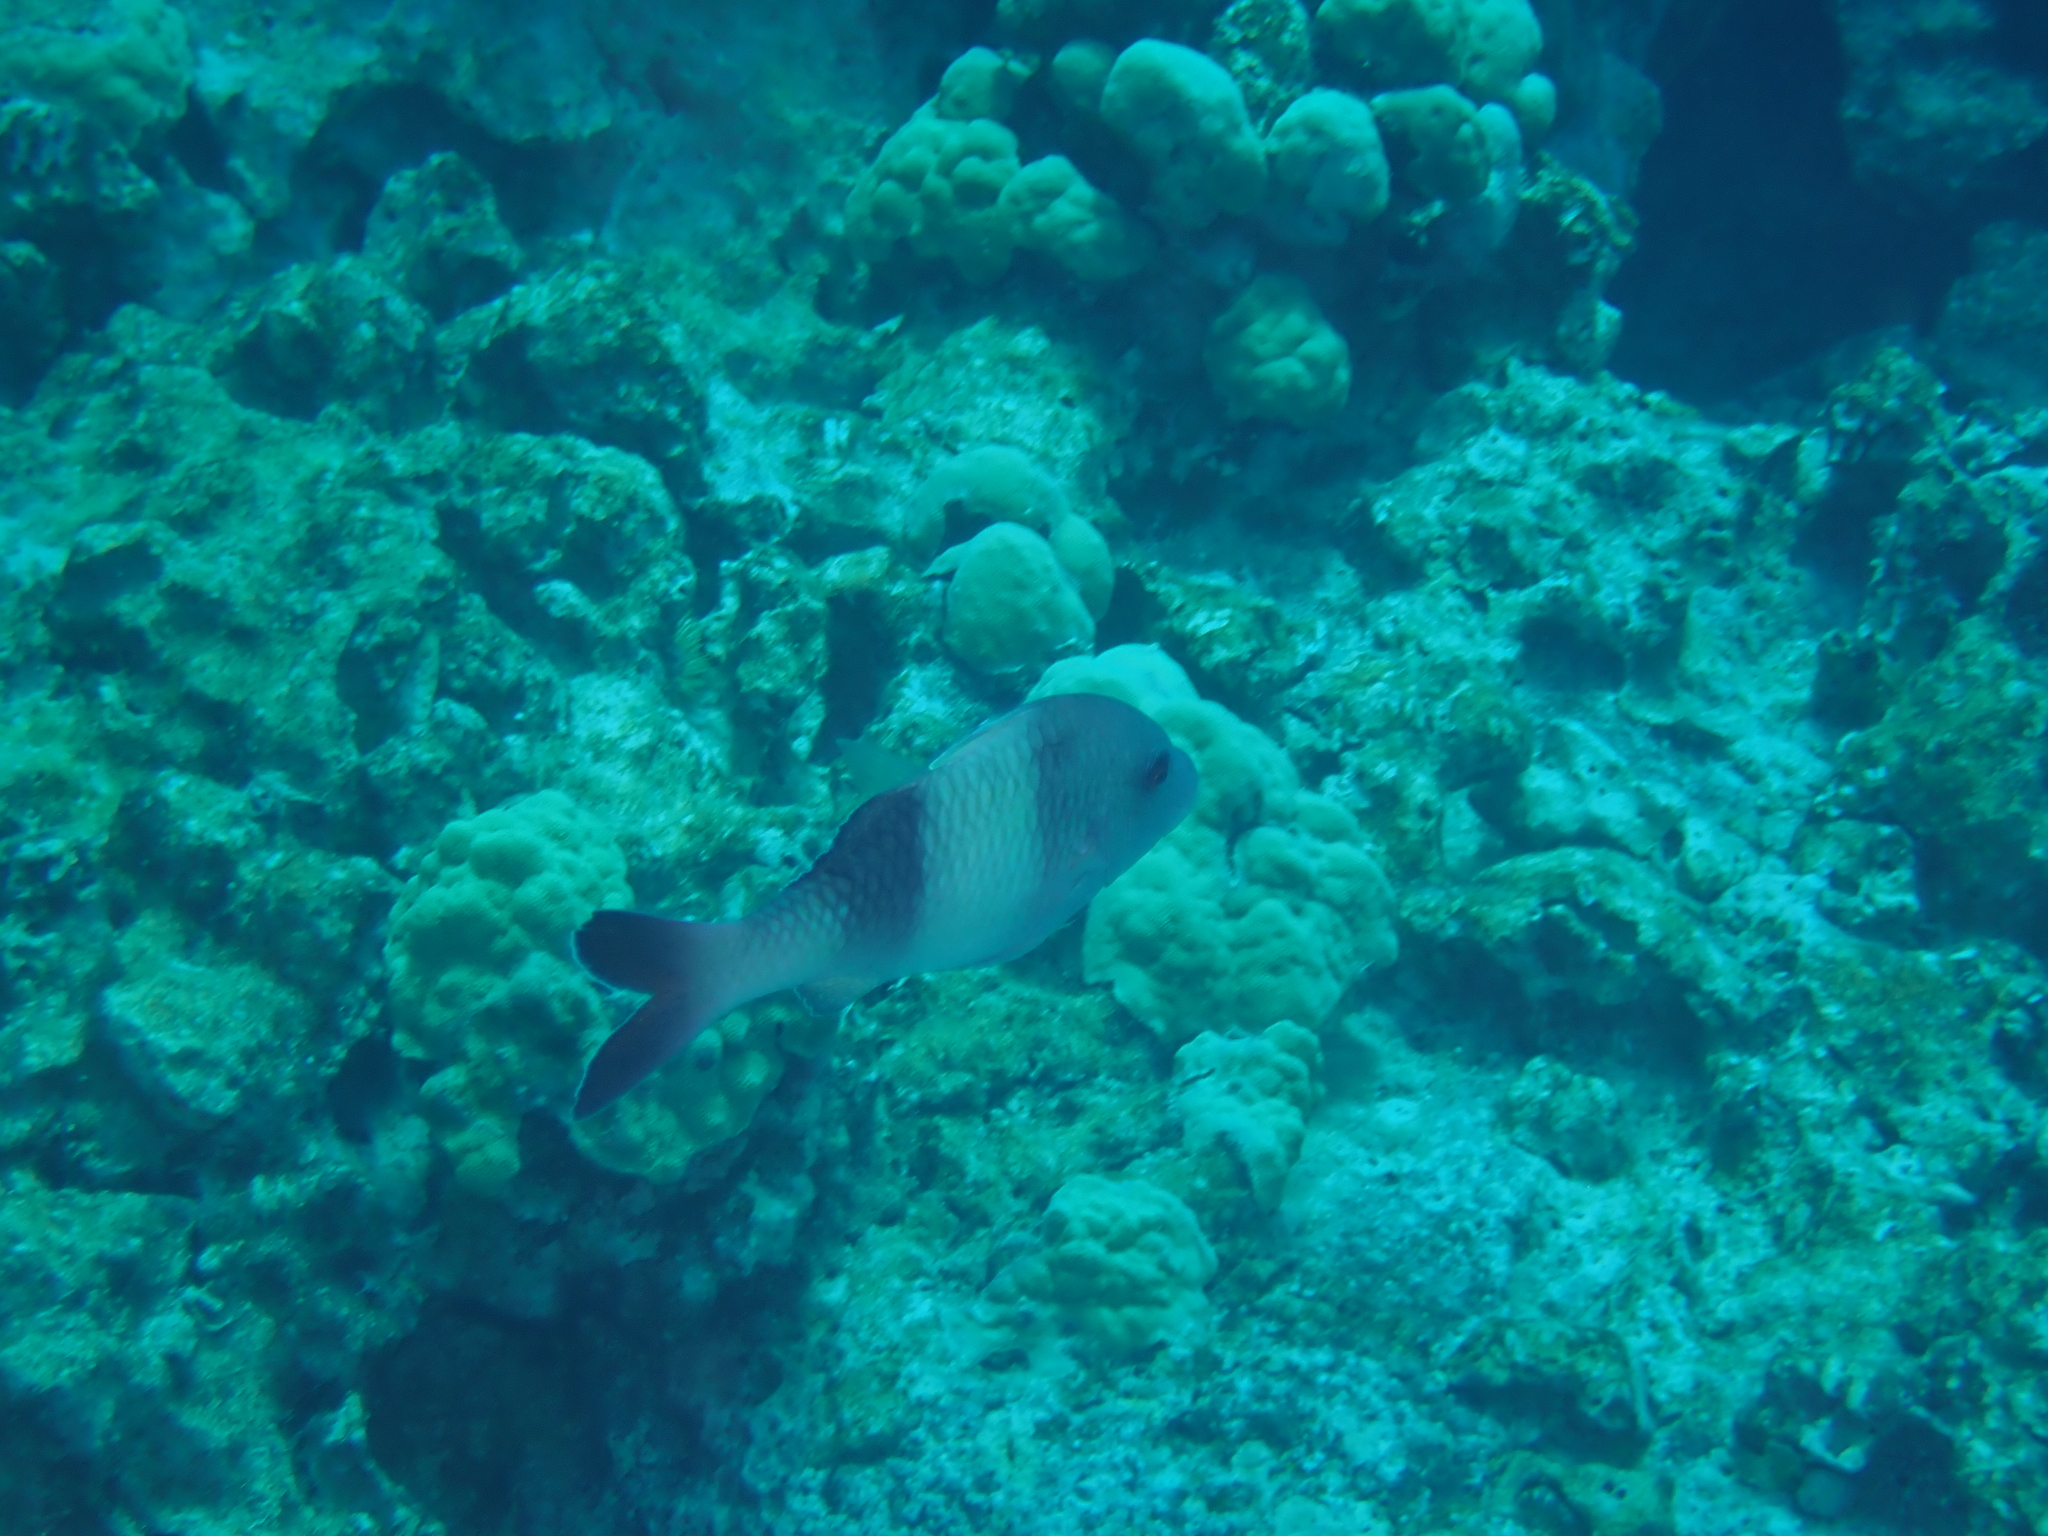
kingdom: Animalia
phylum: Chordata
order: Perciformes
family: Mullidae
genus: Parupeneus
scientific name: Parupeneus insularis
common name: Doublebar goatfish
